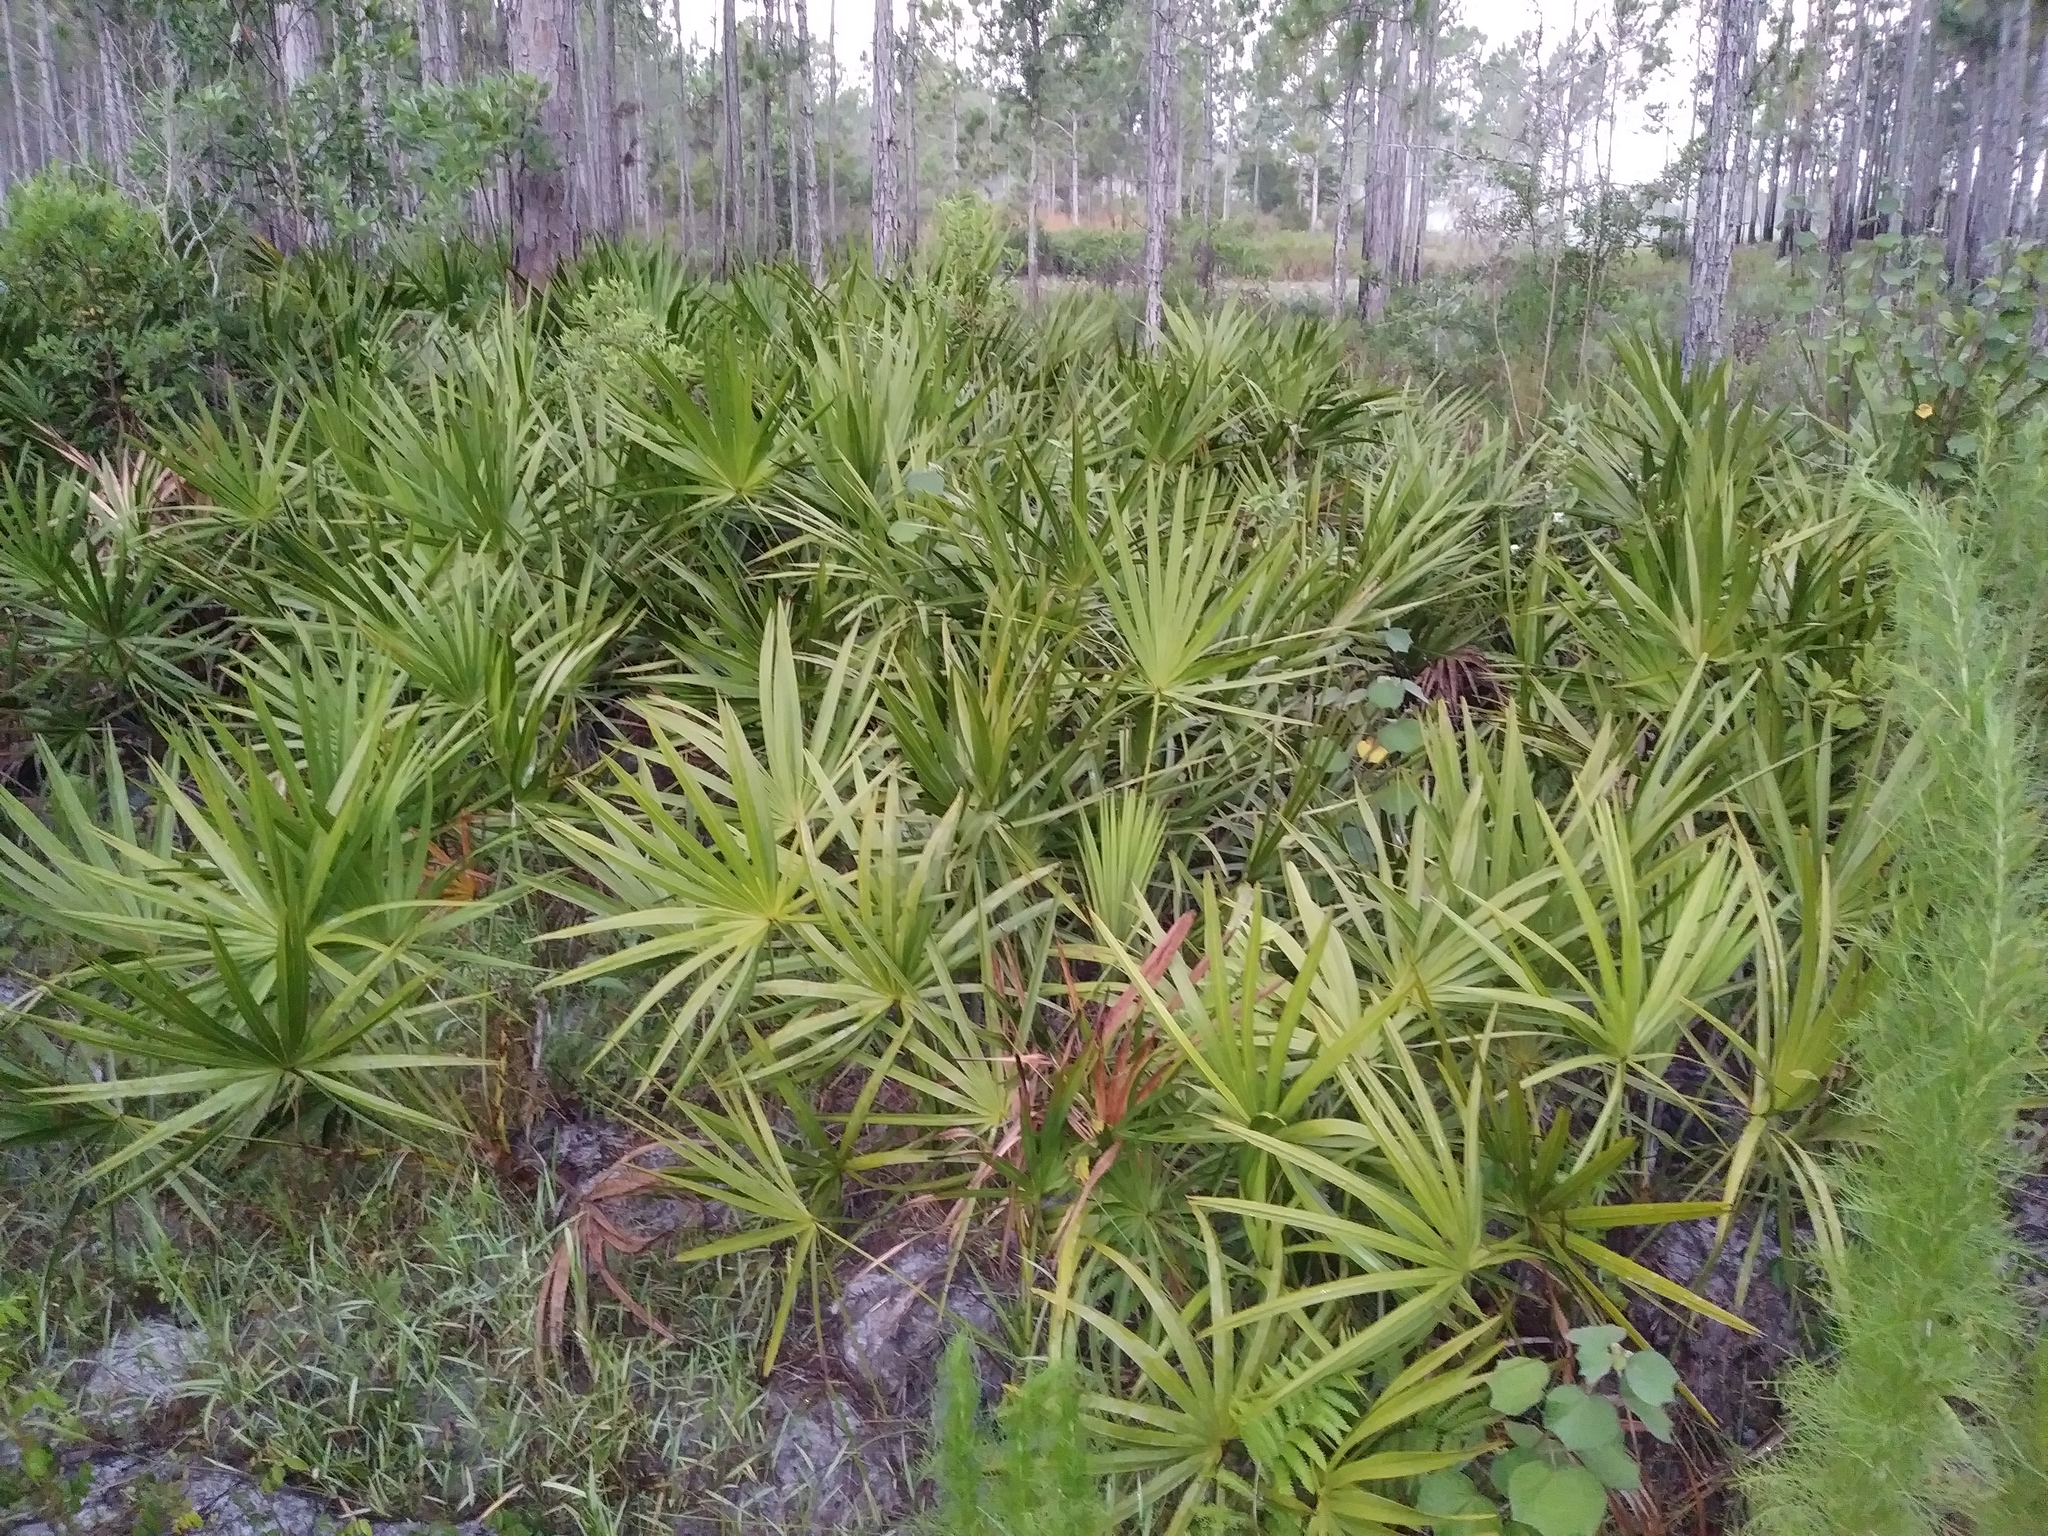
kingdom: Plantae
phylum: Tracheophyta
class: Liliopsida
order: Arecales
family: Arecaceae
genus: Serenoa
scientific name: Serenoa repens
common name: Saw-palmetto
